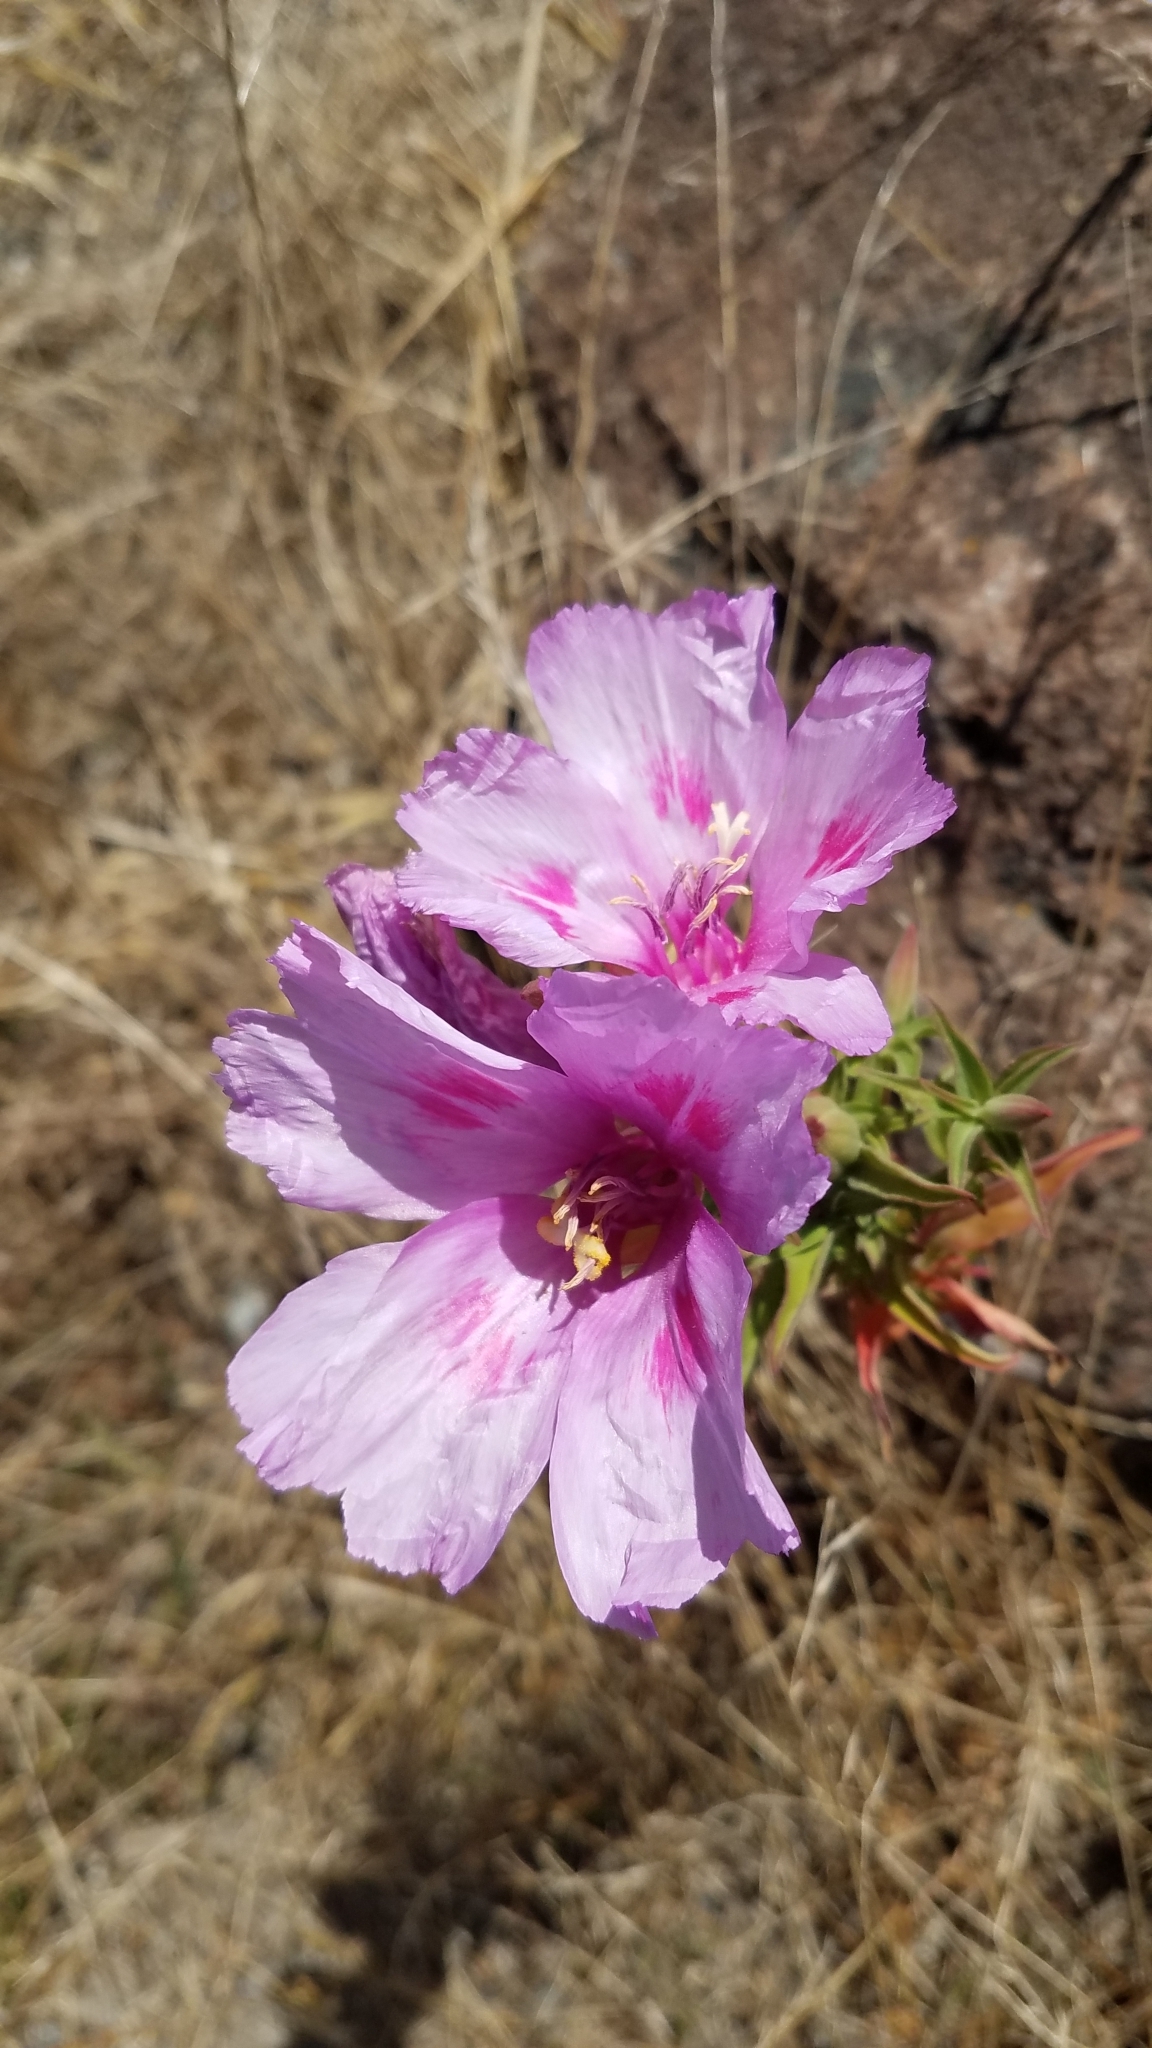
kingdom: Plantae
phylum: Tracheophyta
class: Magnoliopsida
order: Myrtales
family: Onagraceae
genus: Clarkia
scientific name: Clarkia amoena
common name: Godetia
